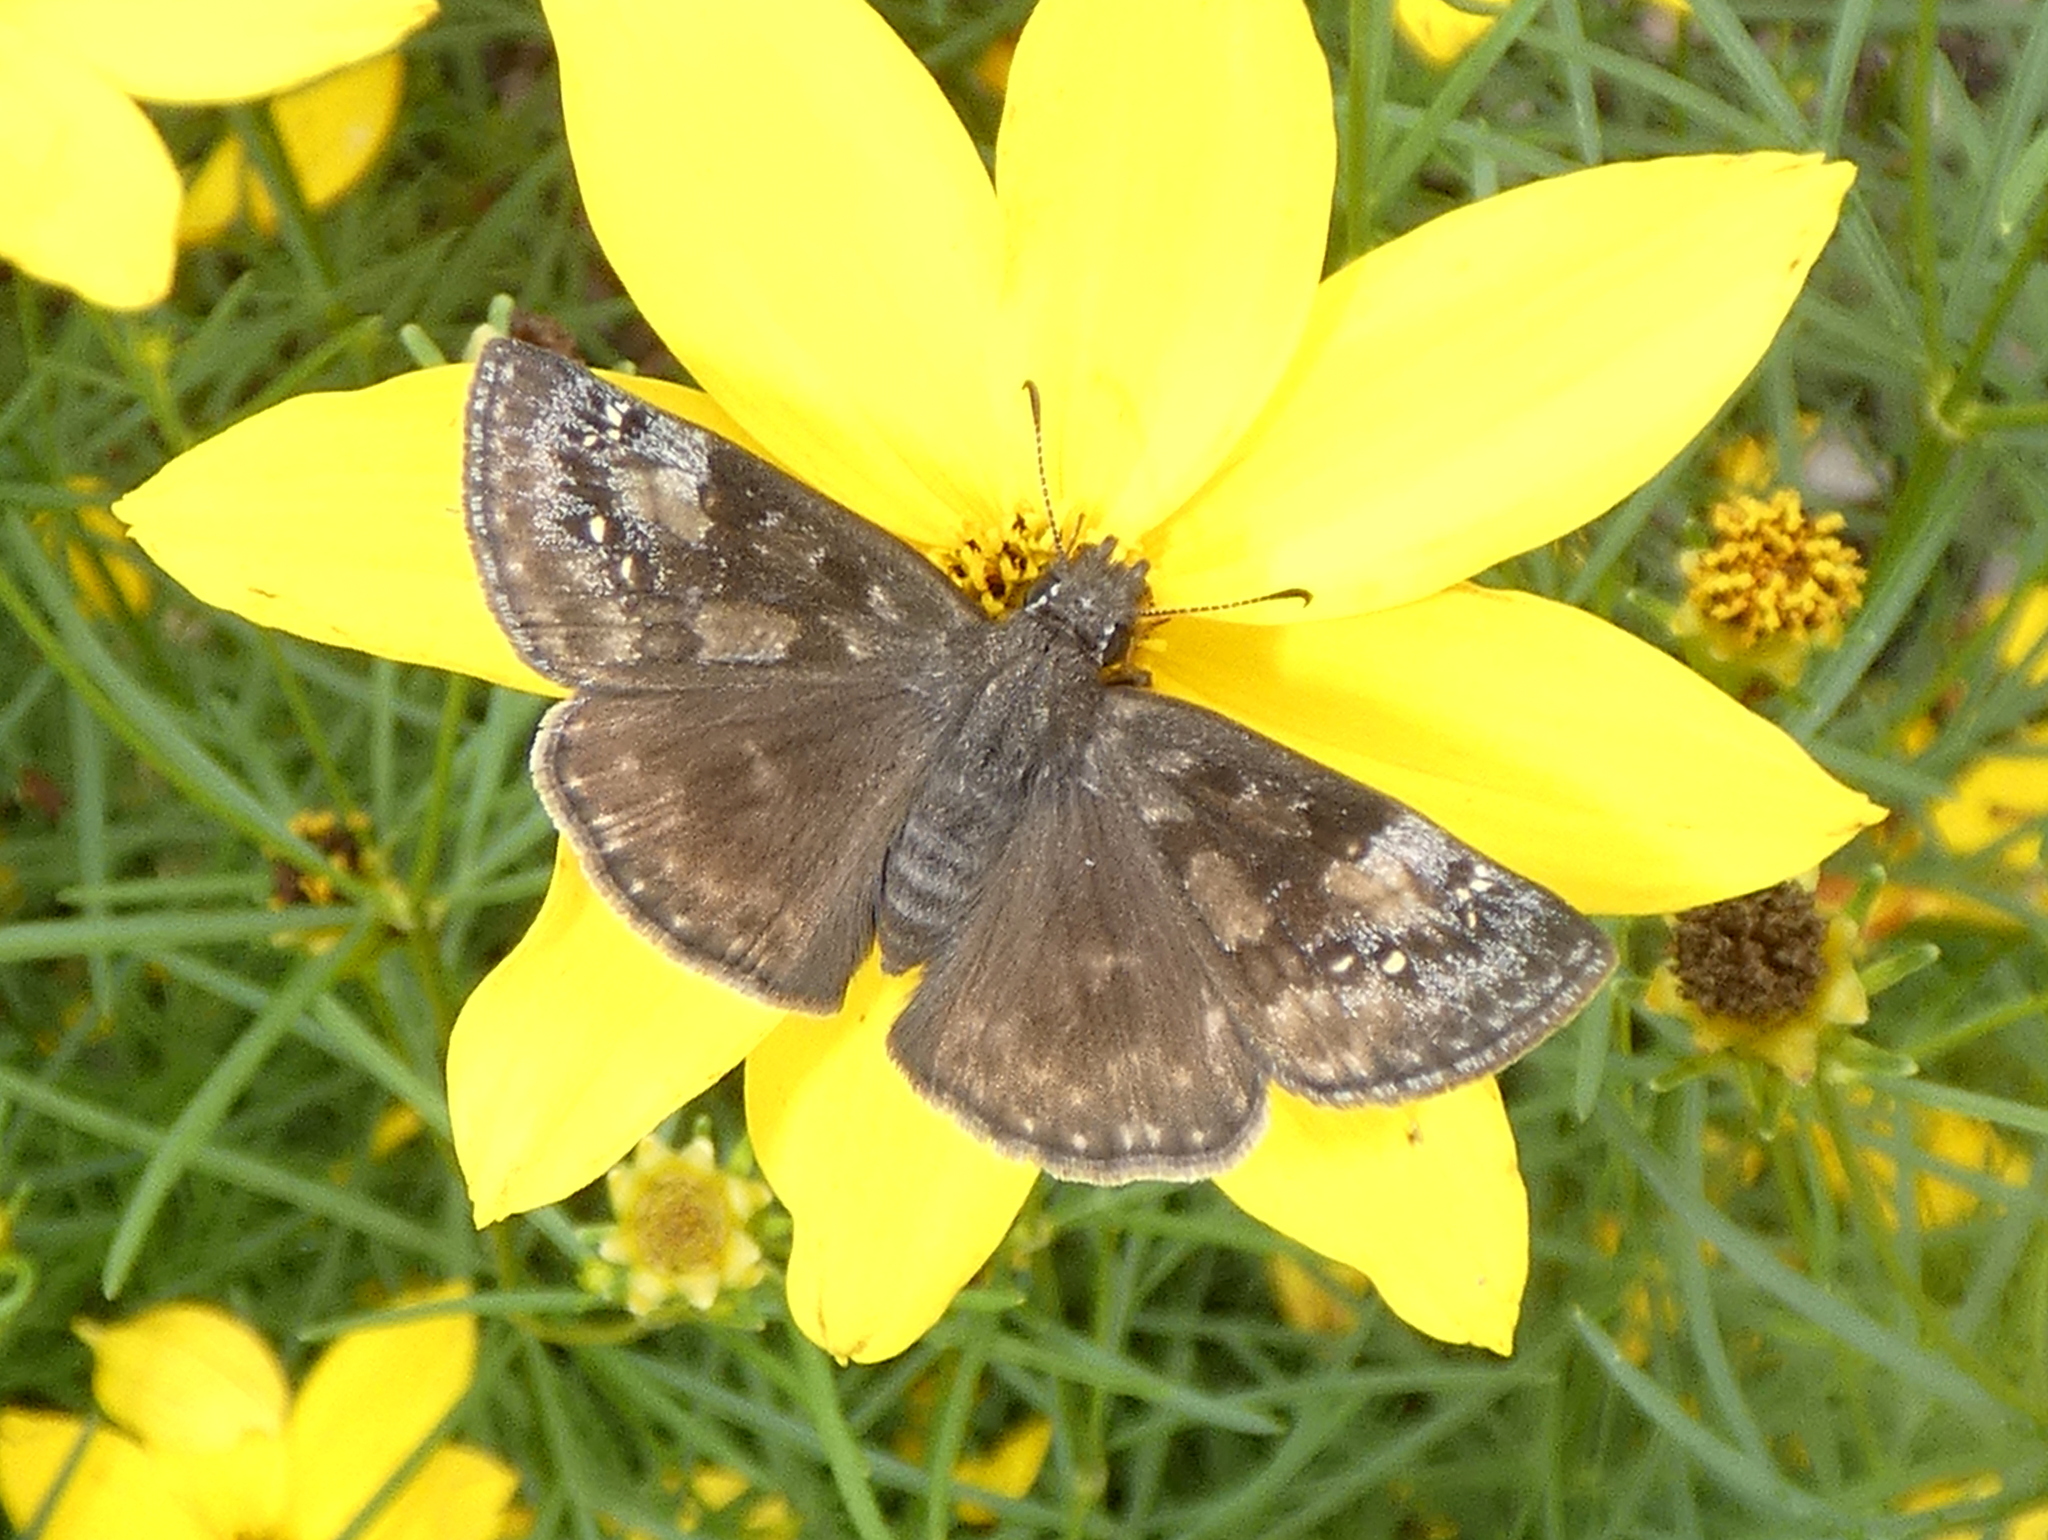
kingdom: Animalia
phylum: Arthropoda
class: Insecta
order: Lepidoptera
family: Hesperiidae
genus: Erynnis
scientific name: Erynnis baptisiae
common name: Wild indigo duskywing
